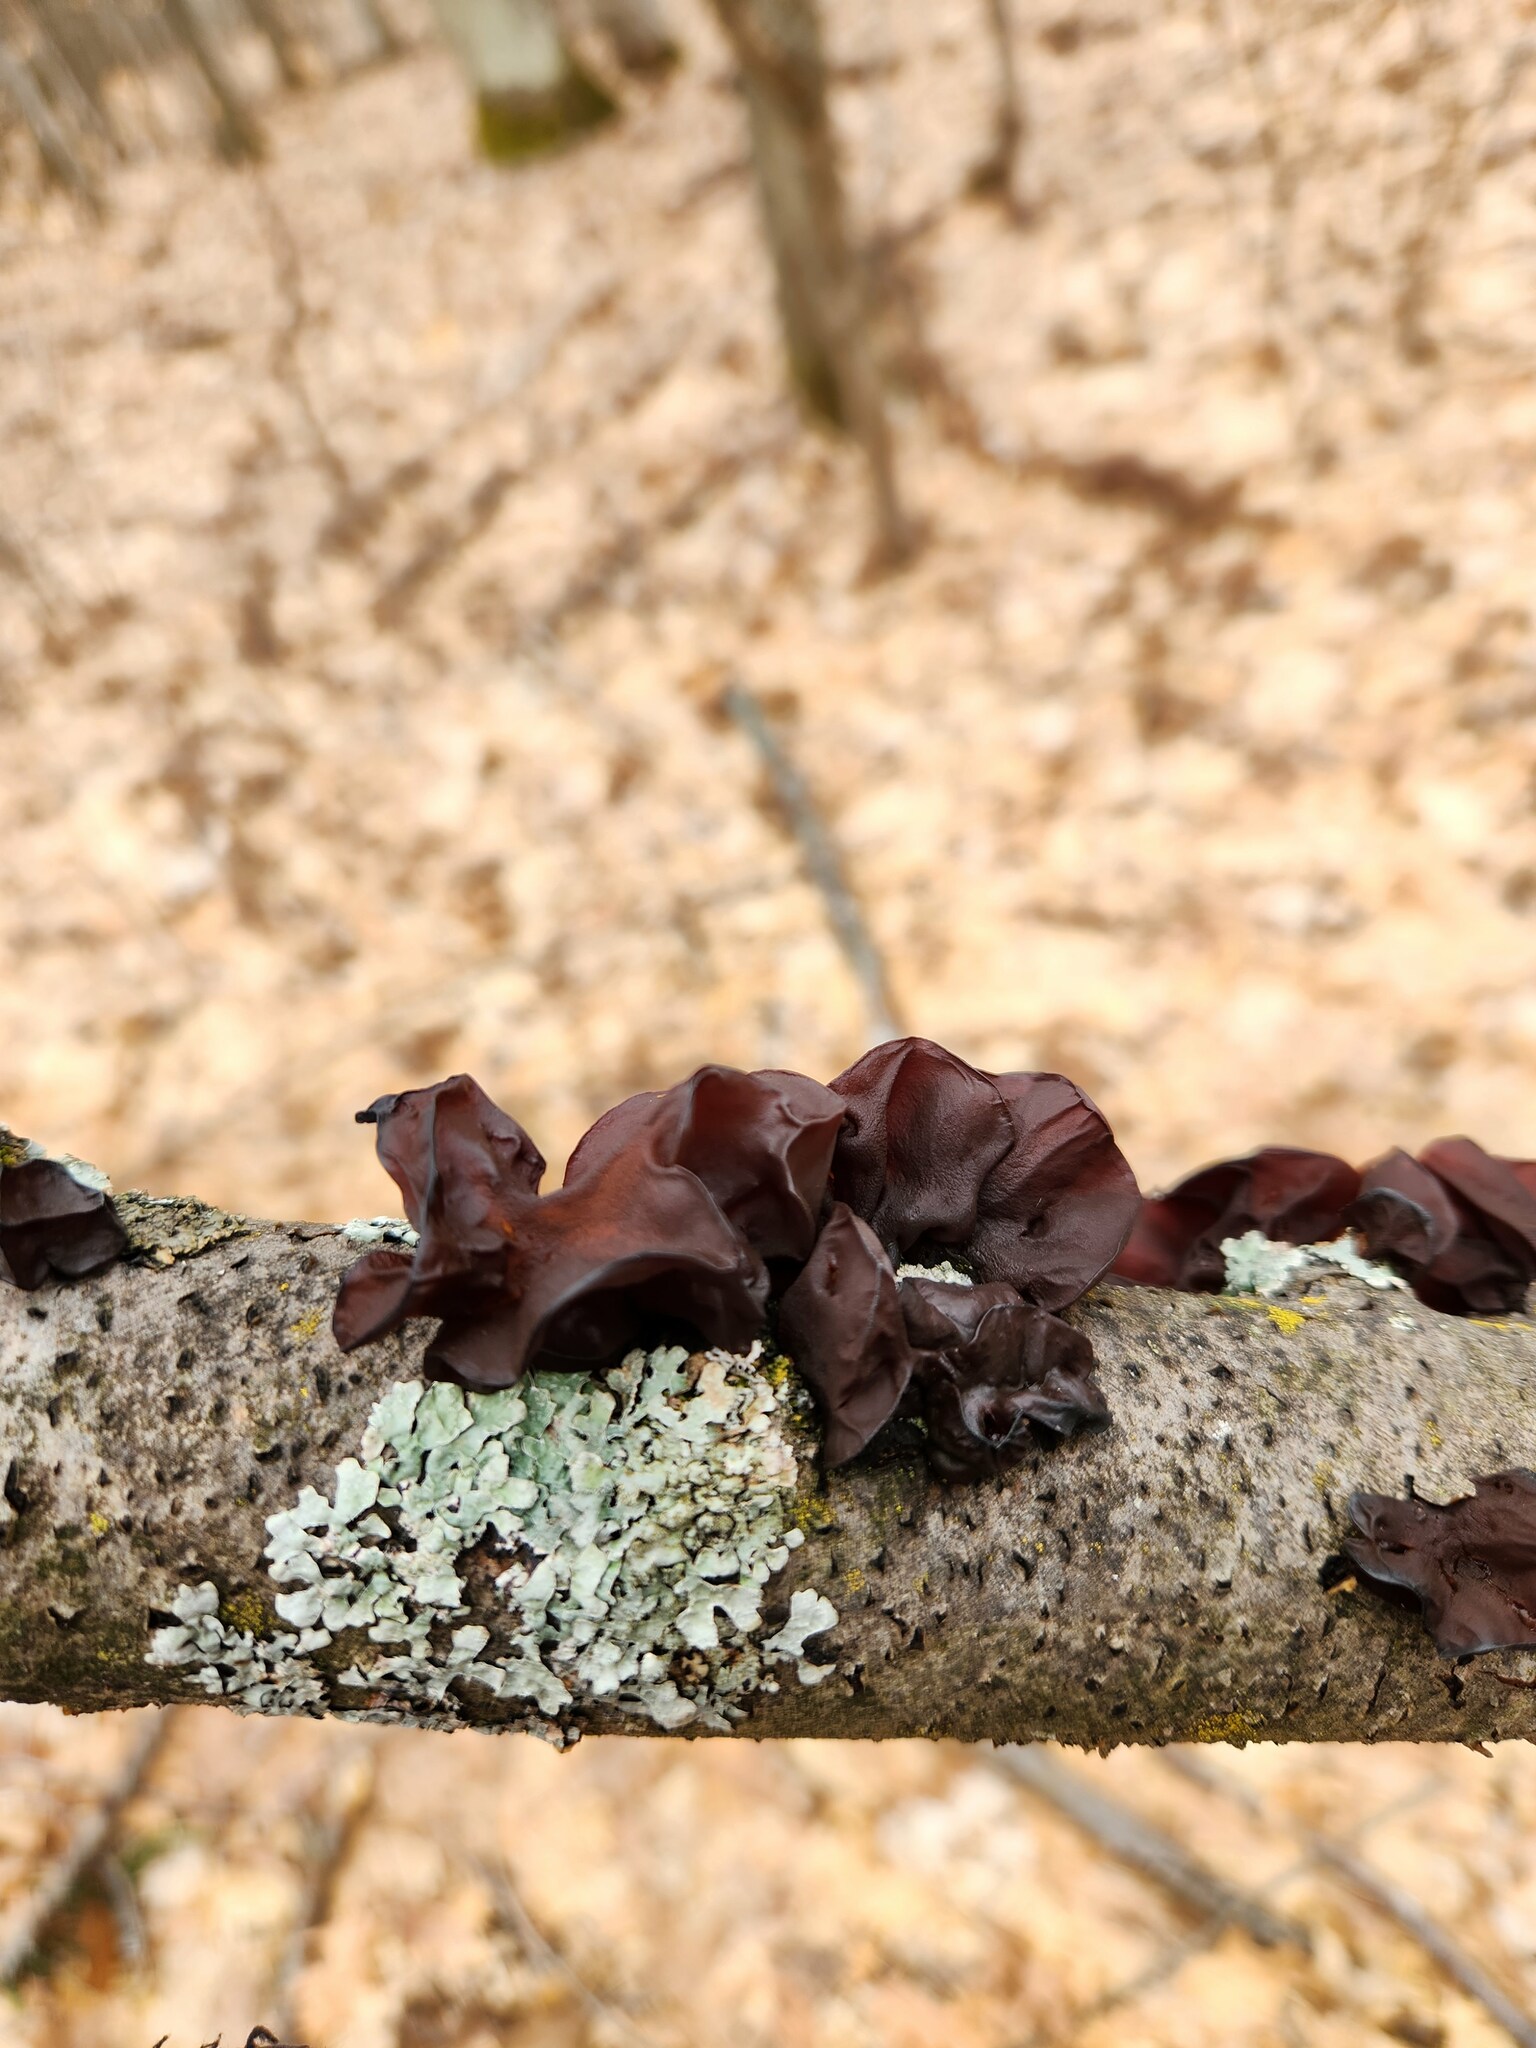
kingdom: Fungi
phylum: Basidiomycota
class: Agaricomycetes
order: Auriculariales
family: Auriculariaceae
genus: Exidia
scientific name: Exidia
